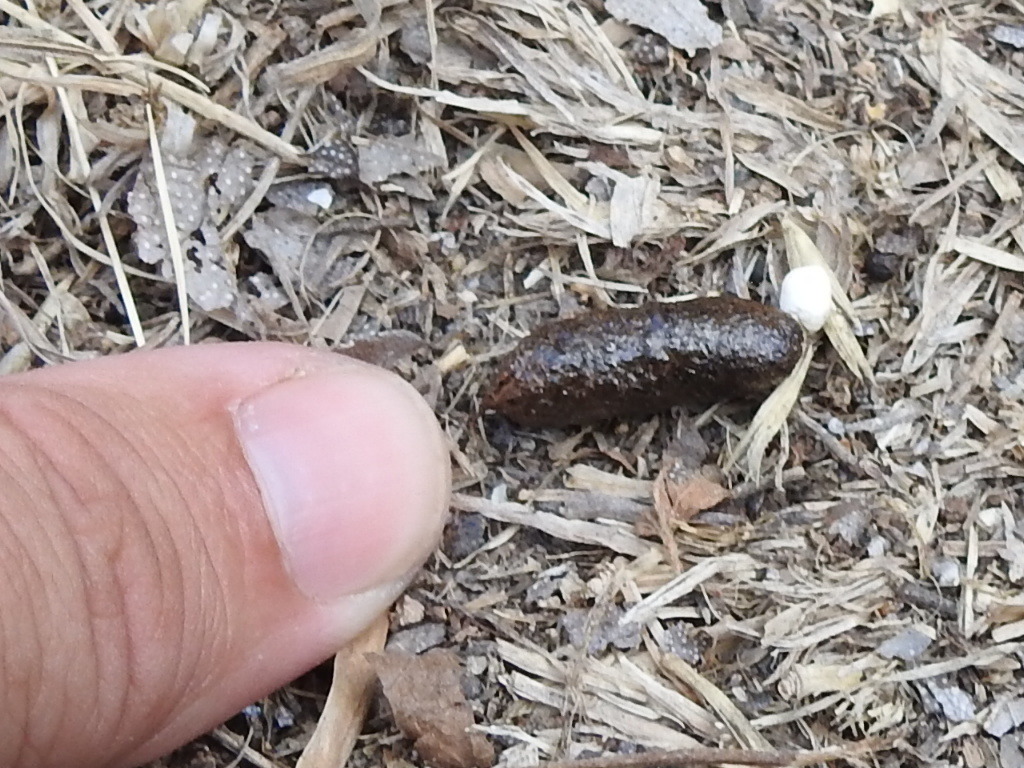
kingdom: Animalia
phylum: Chordata
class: Squamata
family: Phrynosomatidae
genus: Phrynosoma
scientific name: Phrynosoma cornutum
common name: Texas horned lizard
